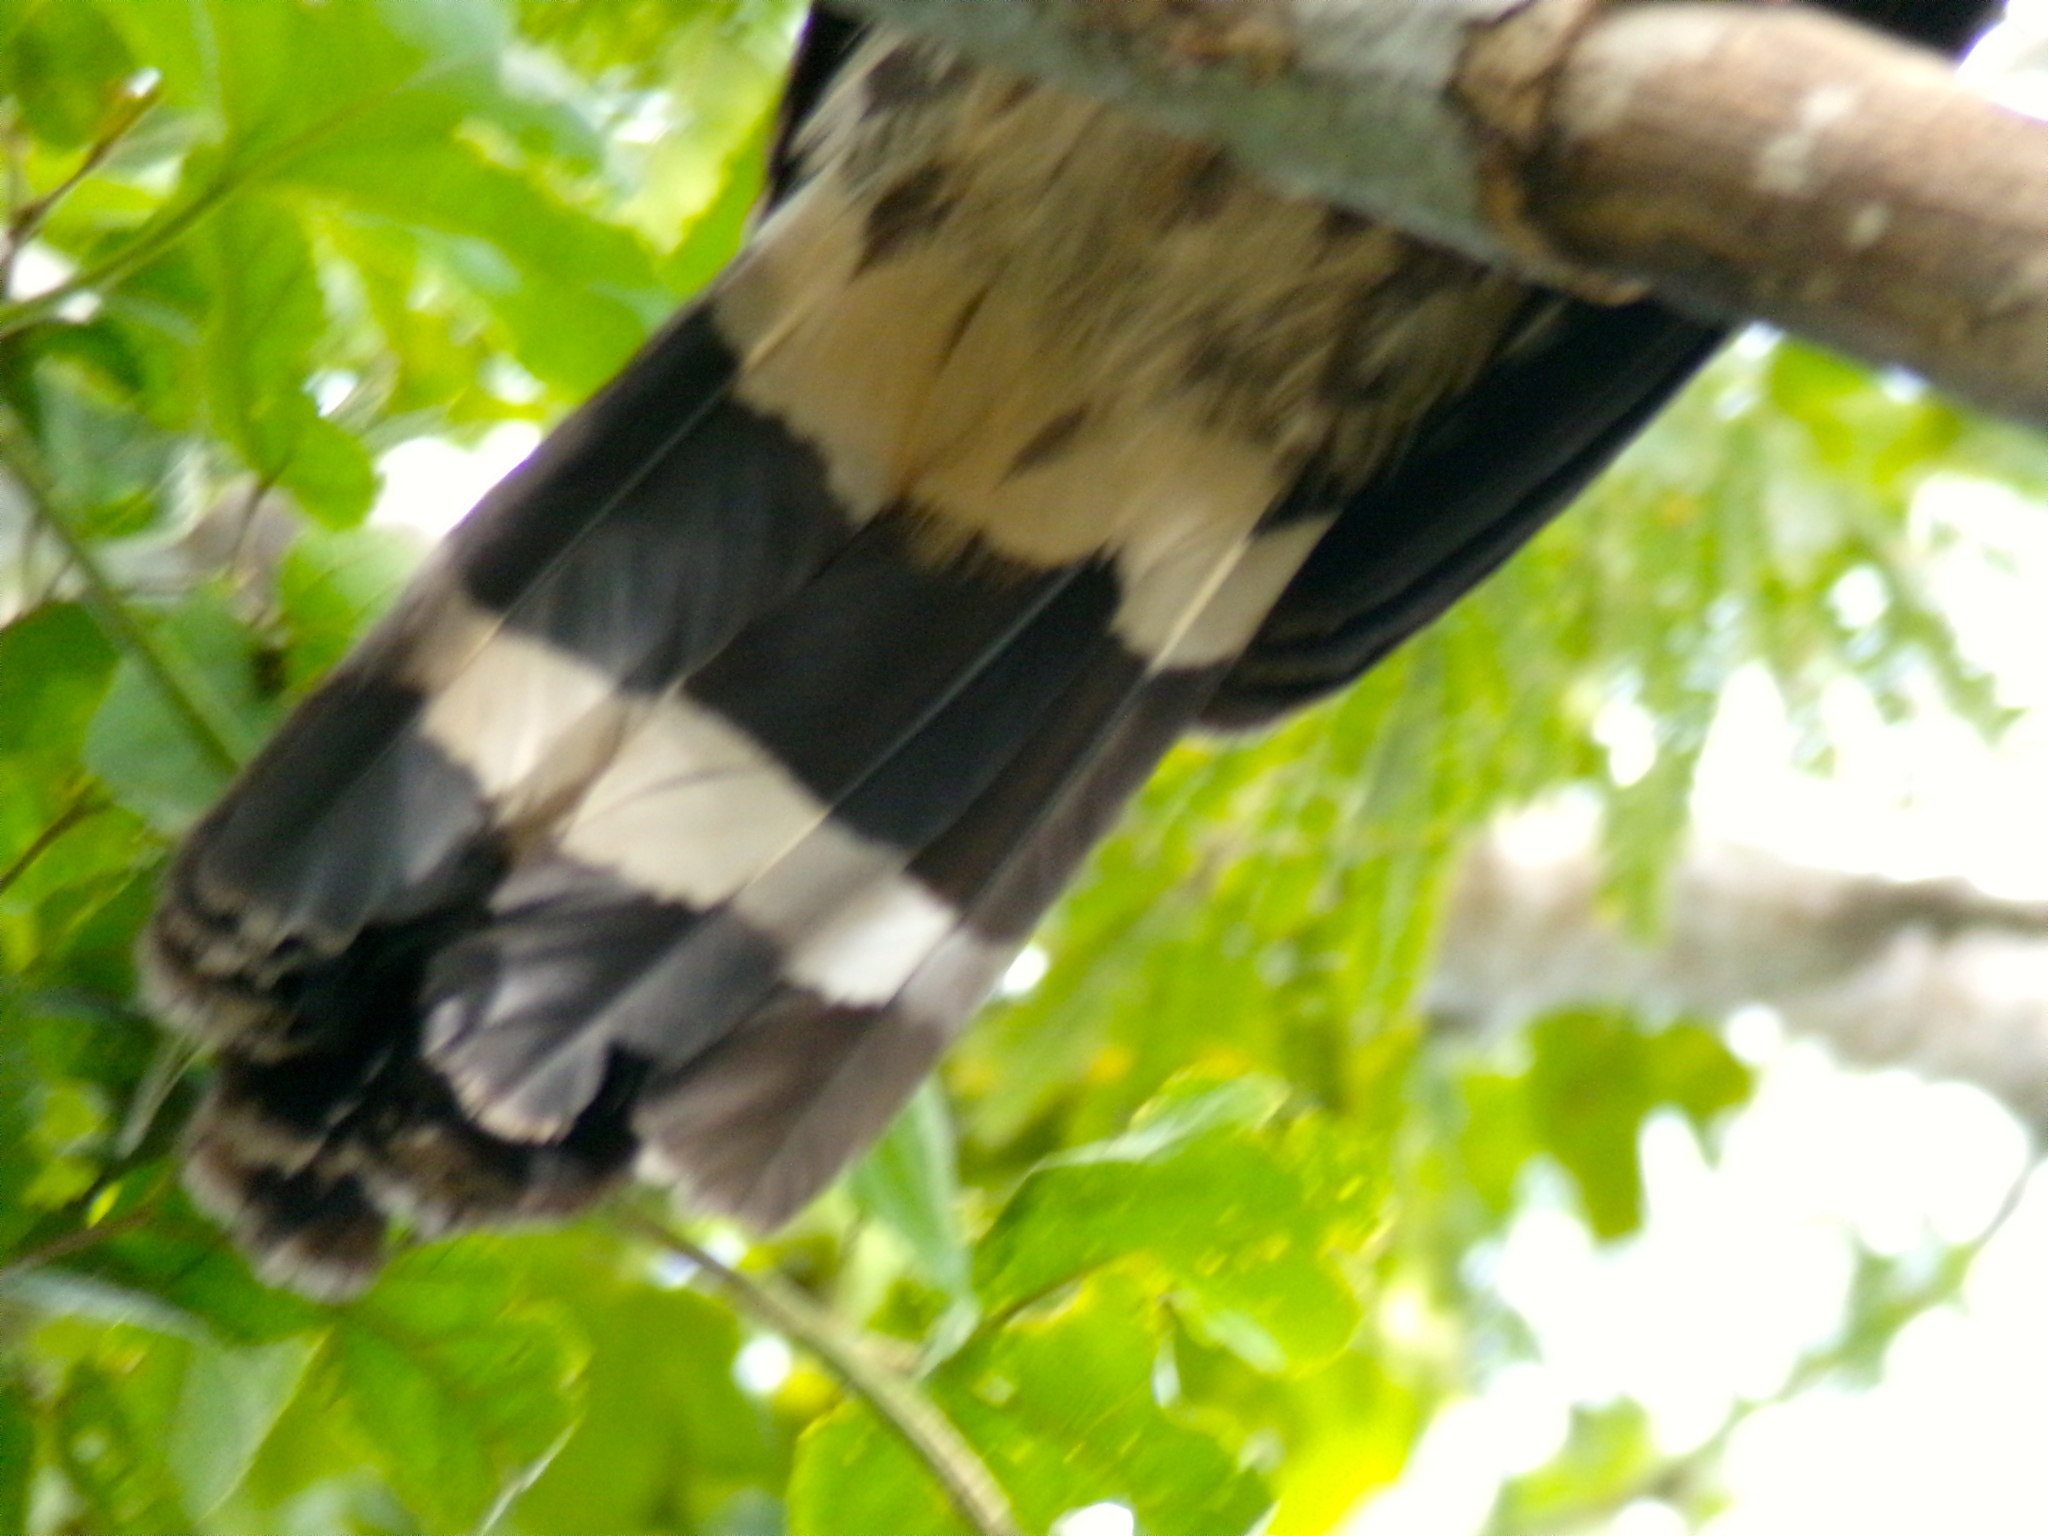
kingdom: Animalia
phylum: Chordata
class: Aves
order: Accipitriformes
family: Accipitridae
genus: Geranospiza
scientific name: Geranospiza caerulescens
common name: Crane hawk
